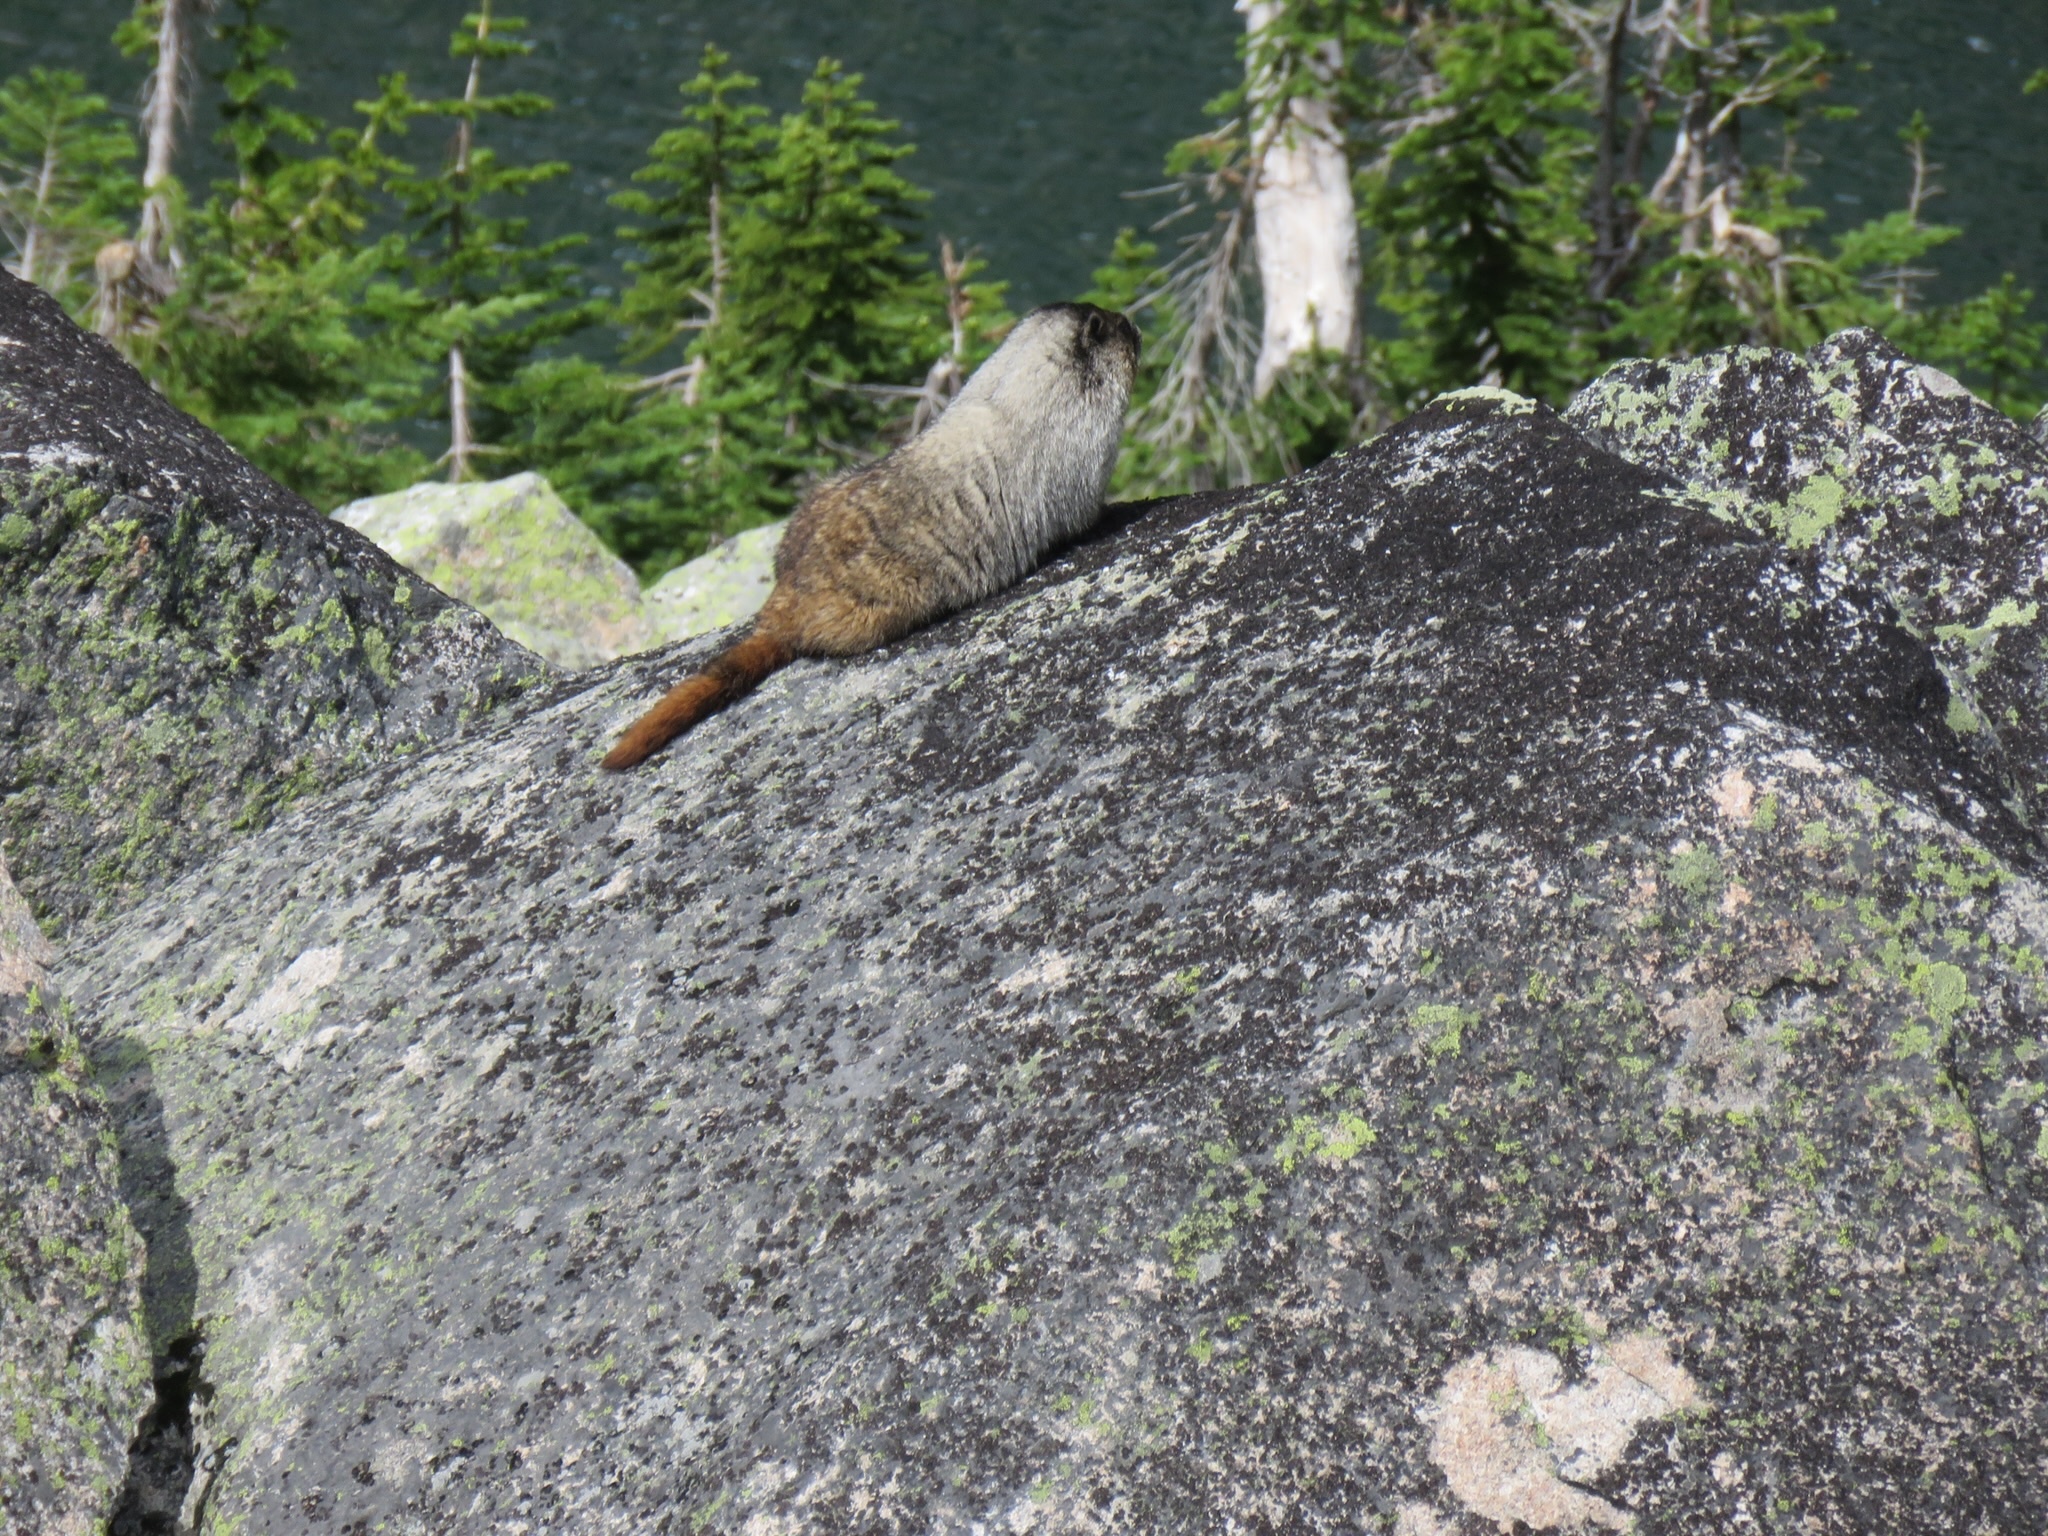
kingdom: Animalia
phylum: Chordata
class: Mammalia
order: Rodentia
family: Sciuridae
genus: Marmota
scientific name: Marmota caligata
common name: Hoary marmot
